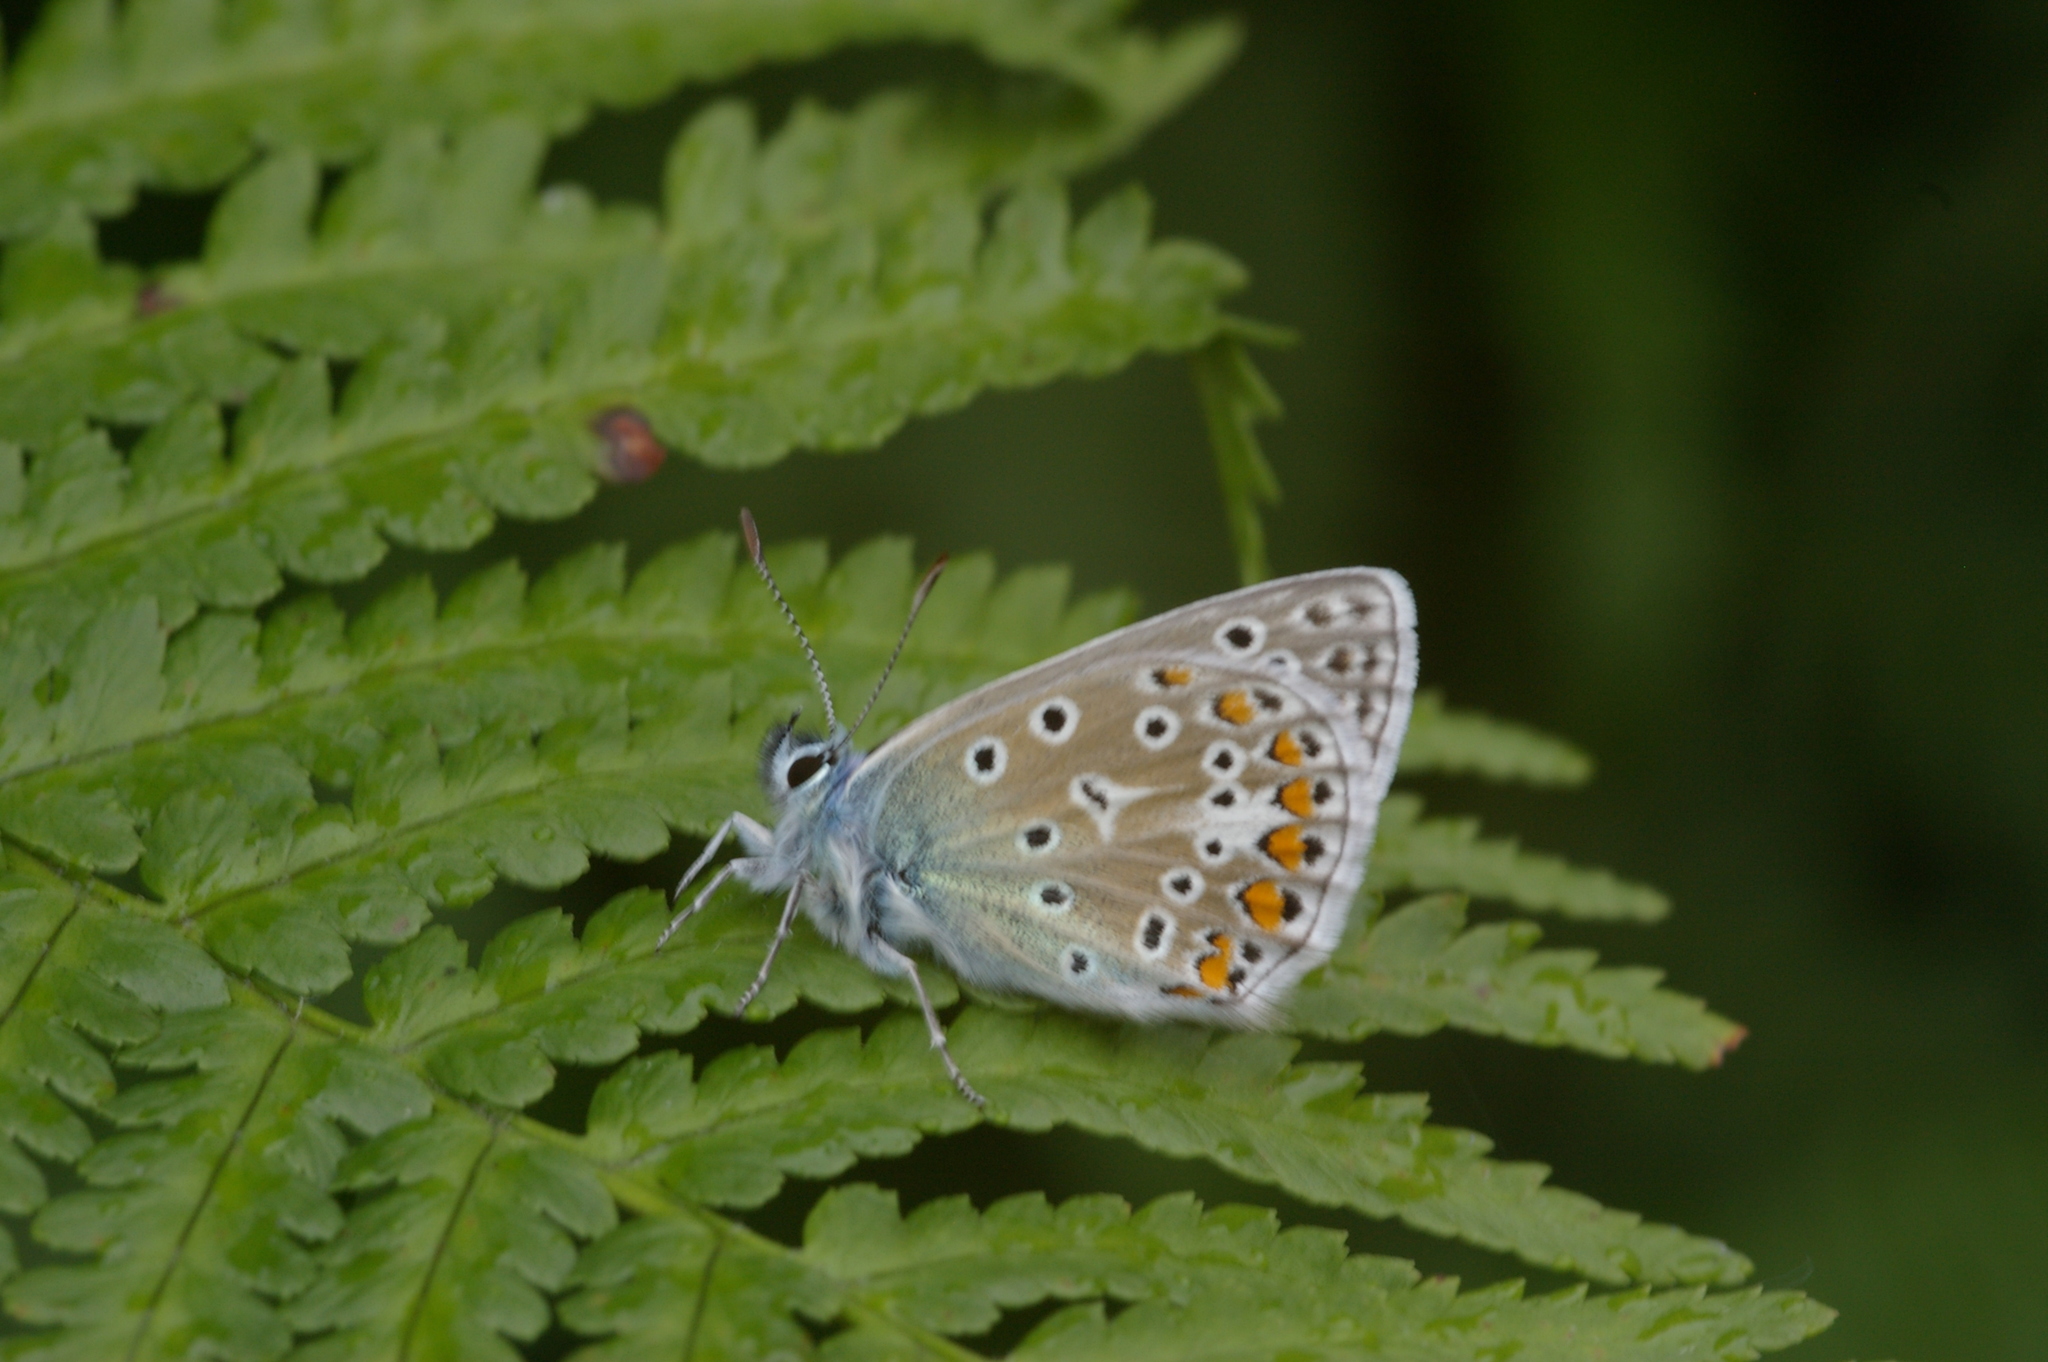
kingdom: Animalia
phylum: Arthropoda
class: Insecta
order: Lepidoptera
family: Lycaenidae
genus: Polyommatus
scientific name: Polyommatus icarus
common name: Common blue
